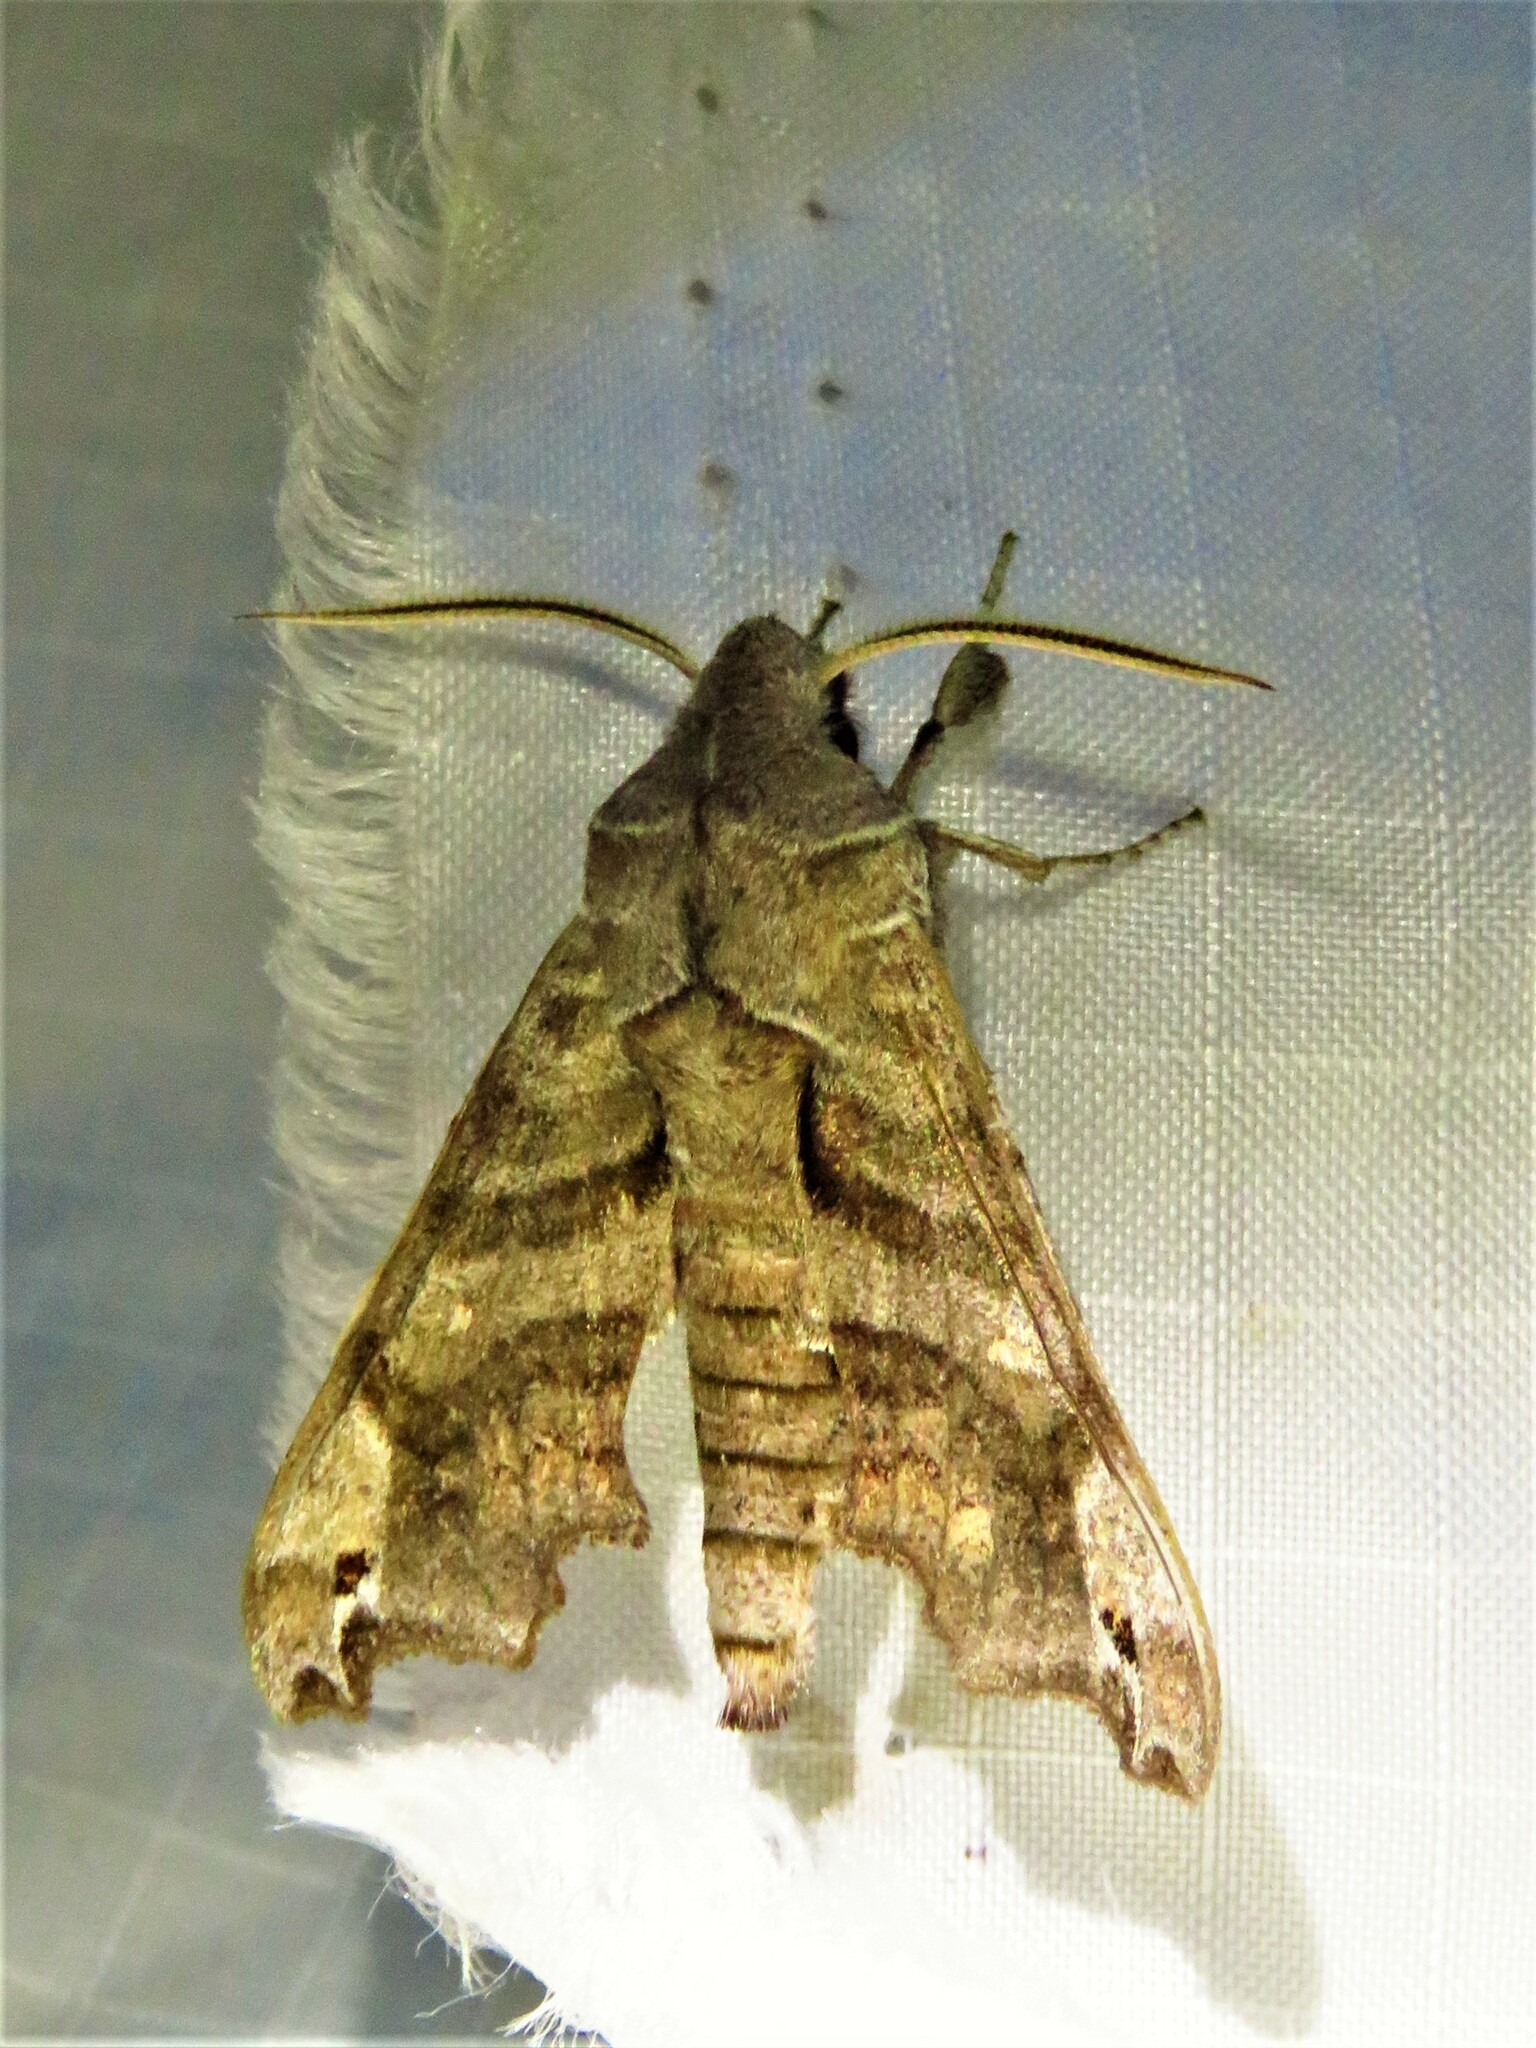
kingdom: Animalia
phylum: Arthropoda
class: Insecta
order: Lepidoptera
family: Sphingidae
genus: Deidamia
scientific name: Deidamia inscriptum
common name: Lettered sphinx
